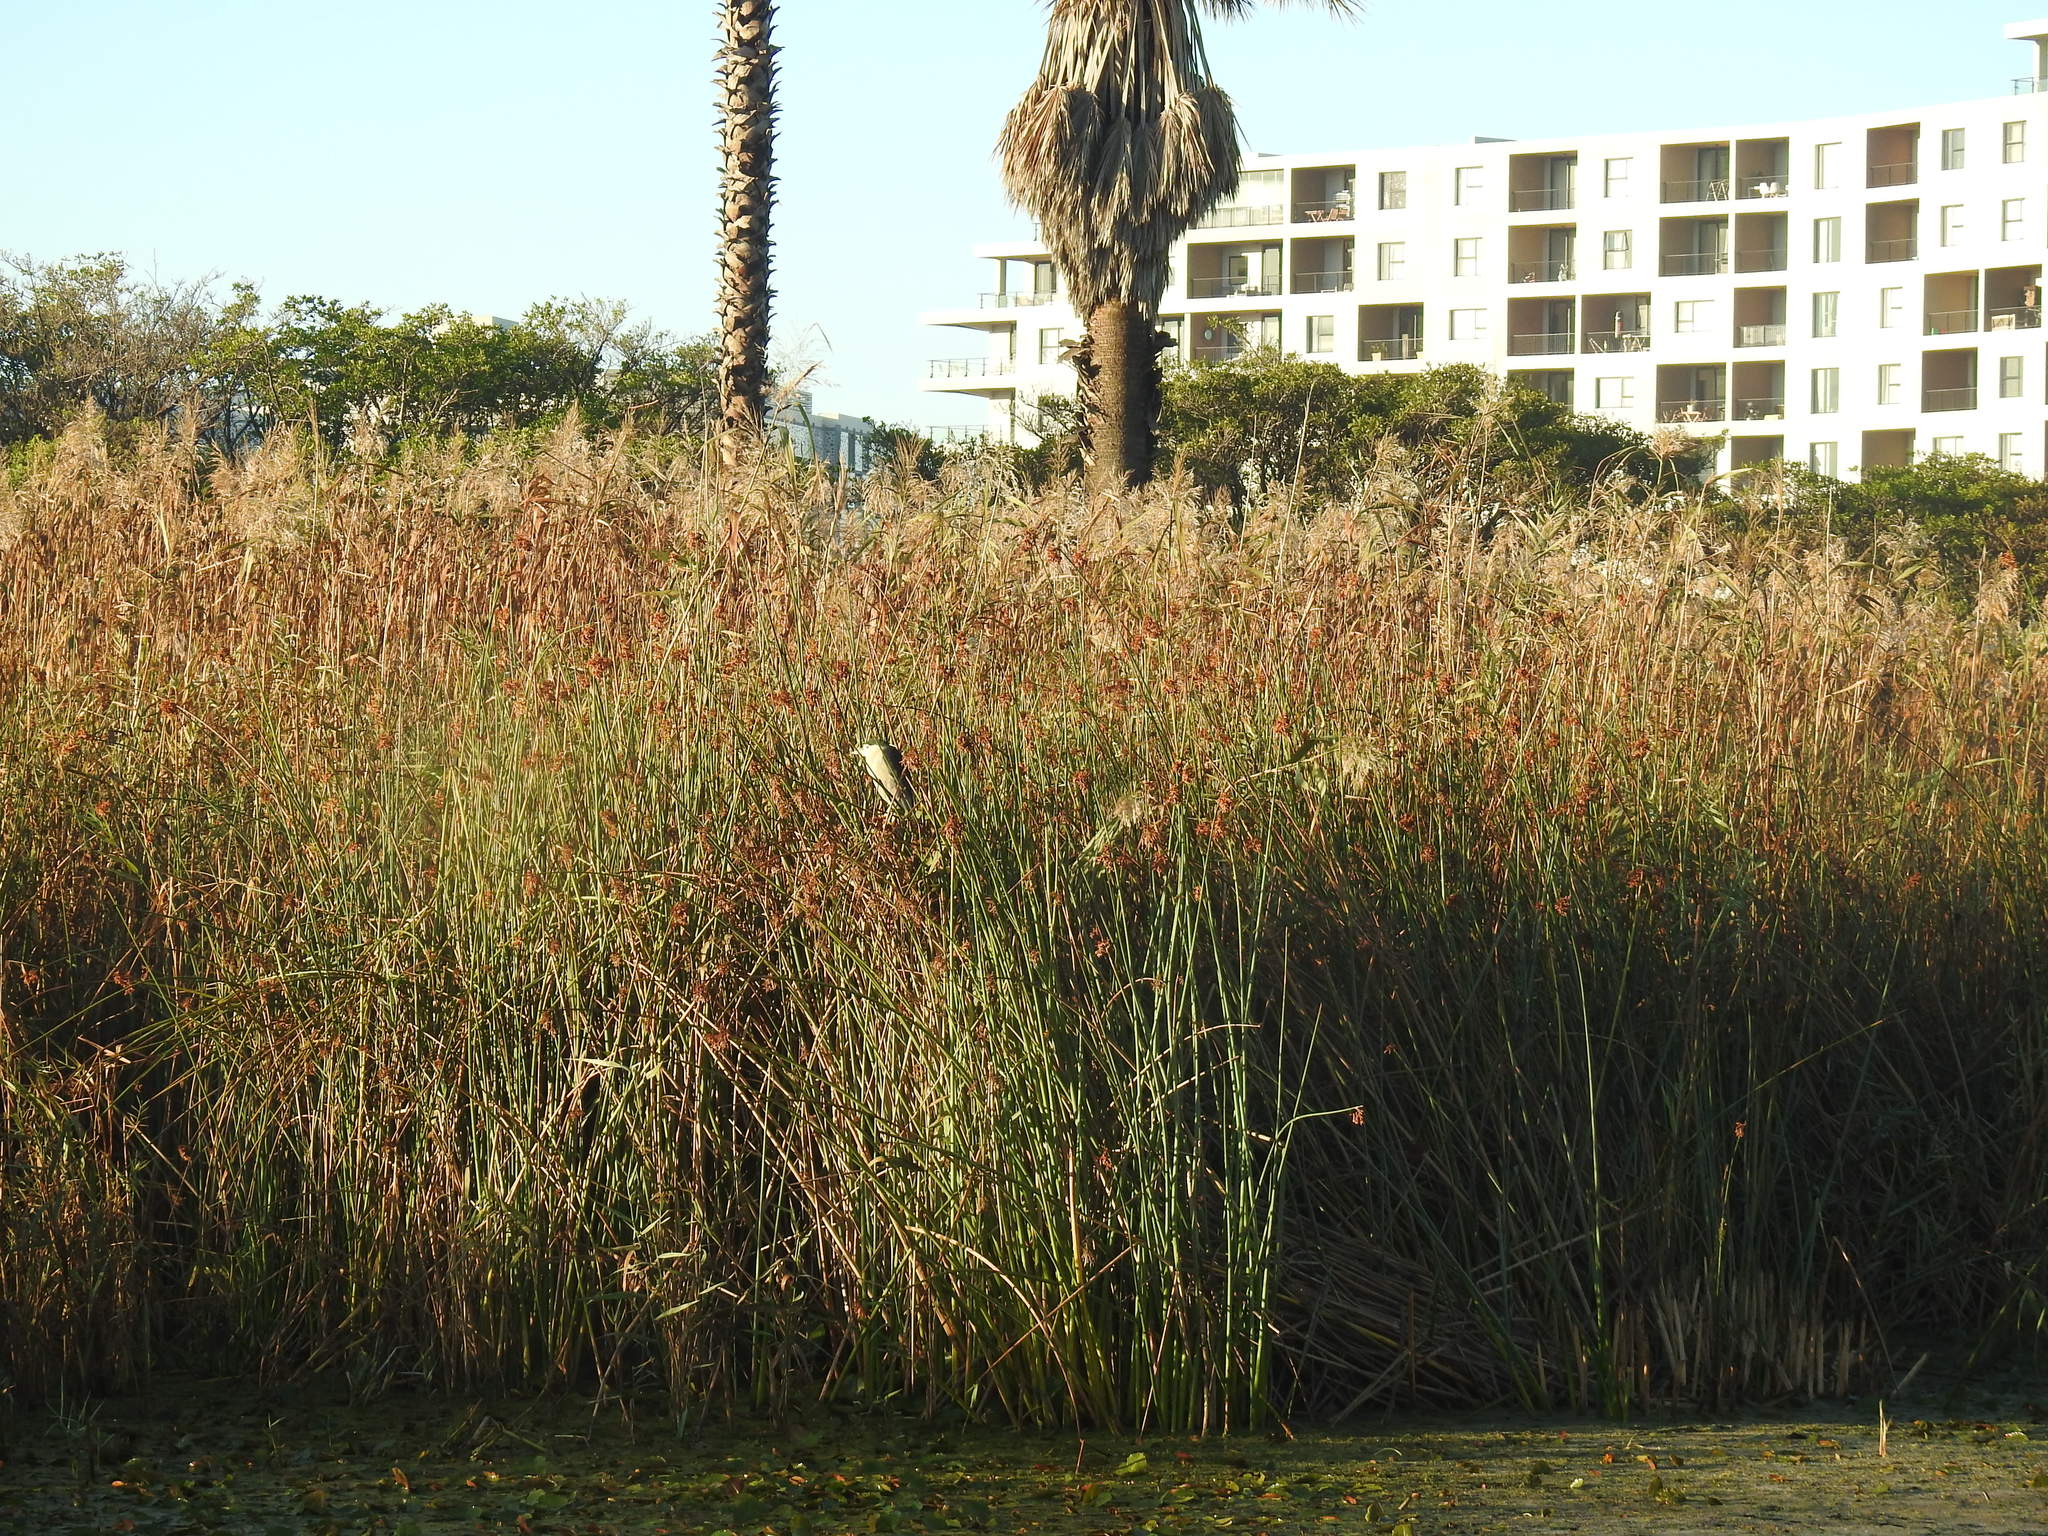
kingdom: Animalia
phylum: Chordata
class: Aves
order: Pelecaniformes
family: Ardeidae
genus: Nycticorax
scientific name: Nycticorax nycticorax
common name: Black-crowned night heron
